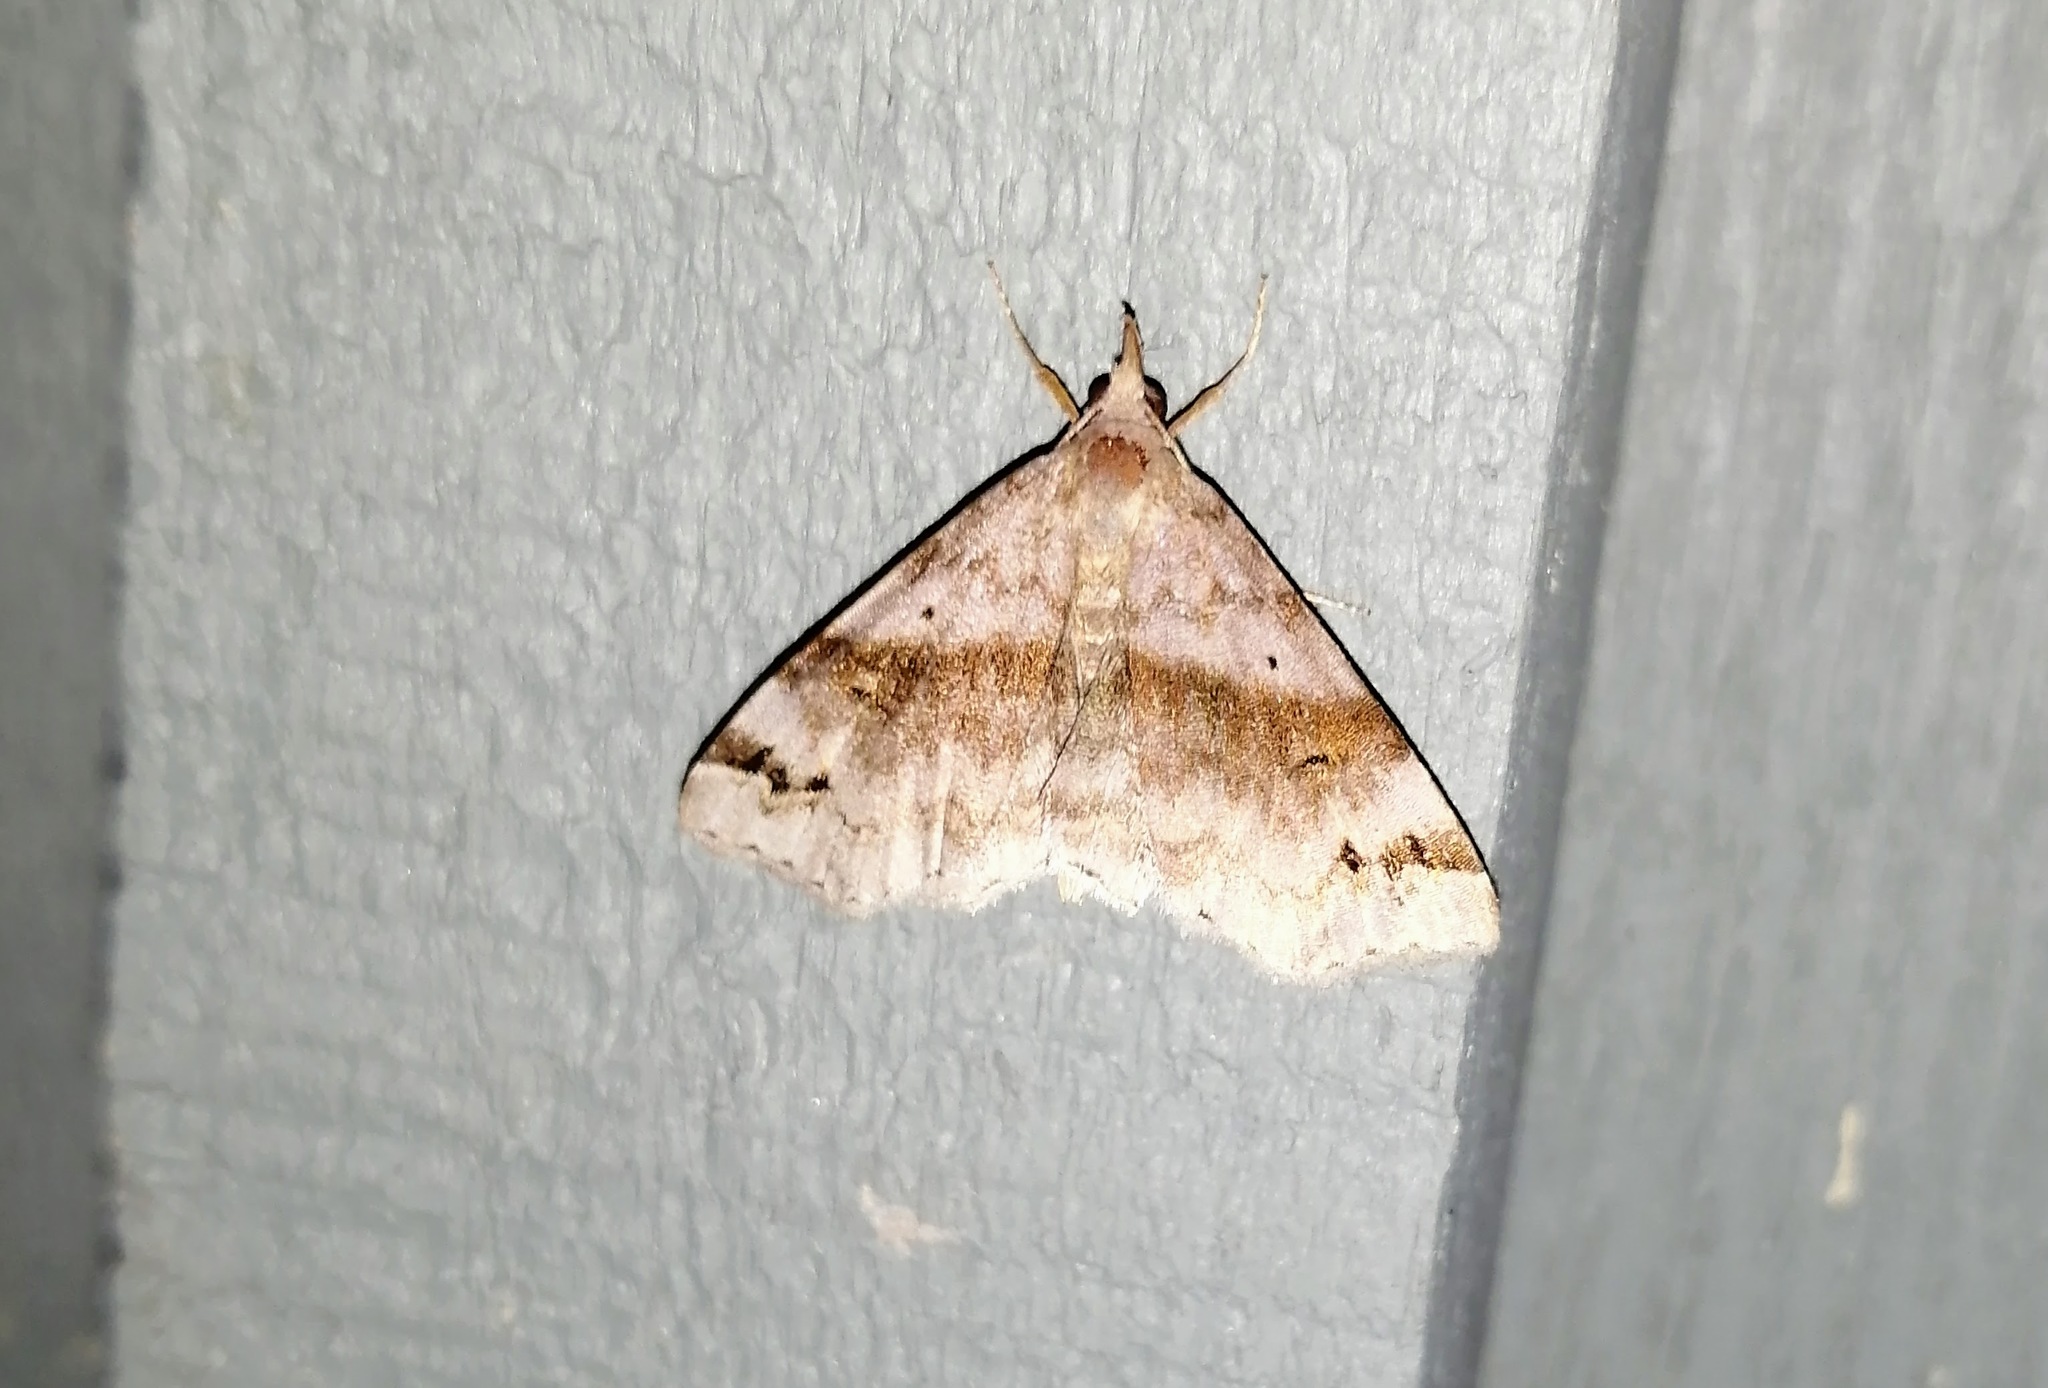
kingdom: Animalia
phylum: Arthropoda
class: Insecta
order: Lepidoptera
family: Erebidae
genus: Spargaloma
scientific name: Spargaloma sexpunctata
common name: Six-spotted gray
